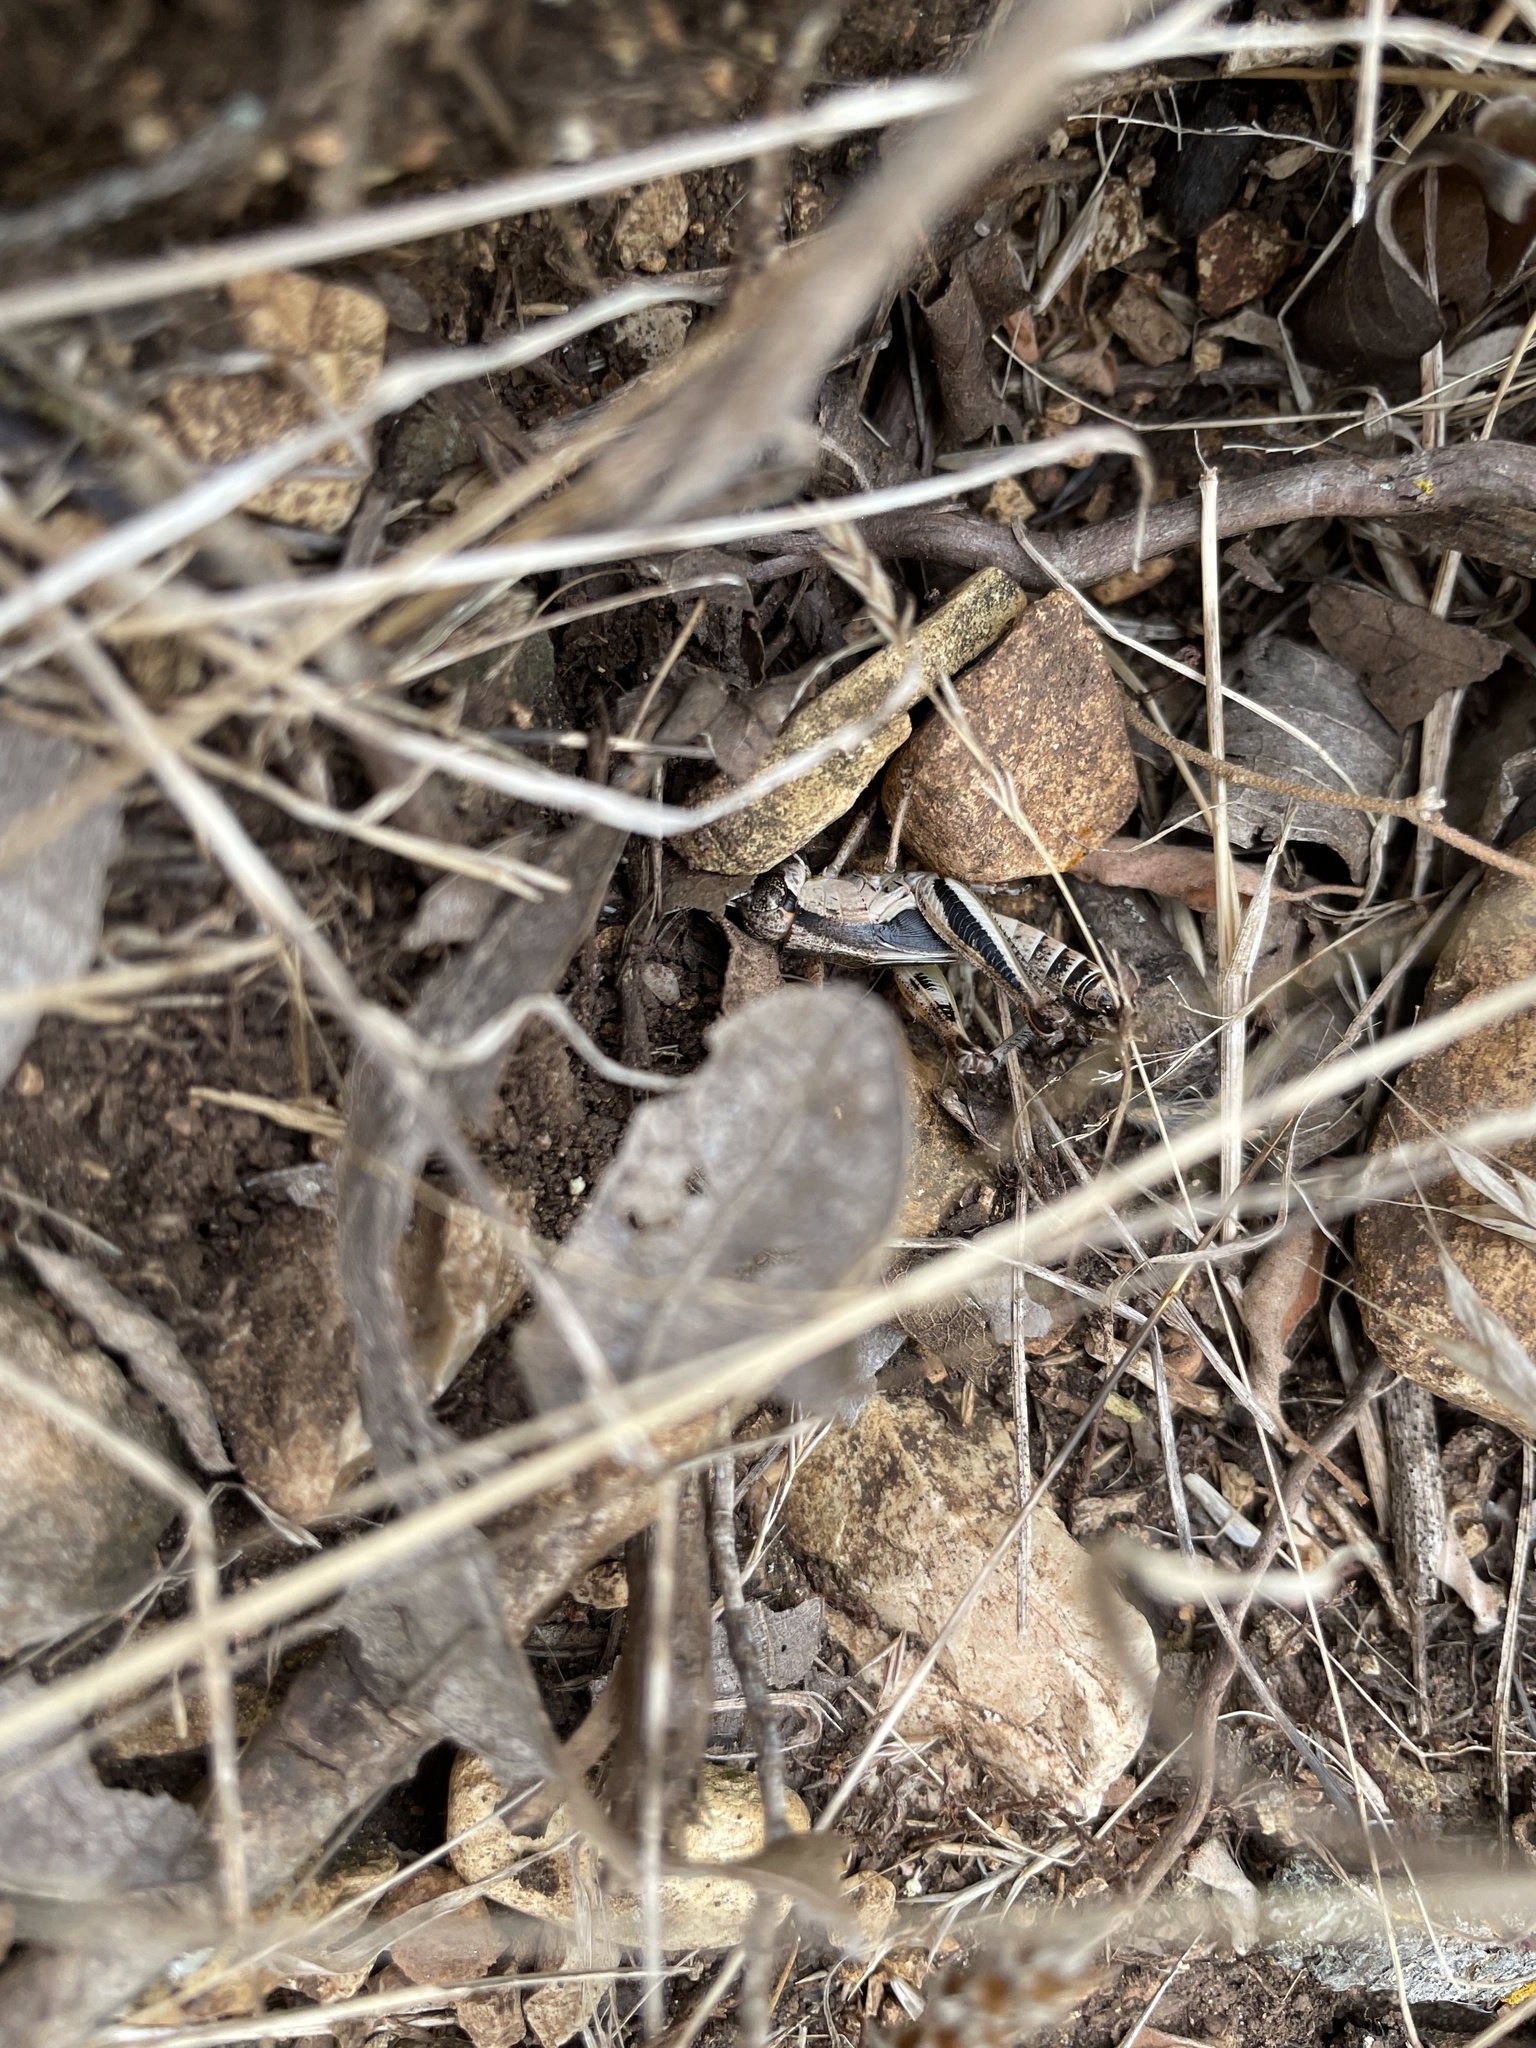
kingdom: Animalia
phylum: Arthropoda
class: Insecta
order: Orthoptera
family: Acrididae
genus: Melanoplus
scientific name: Melanoplus keeleri
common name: Keeler grasshopper
